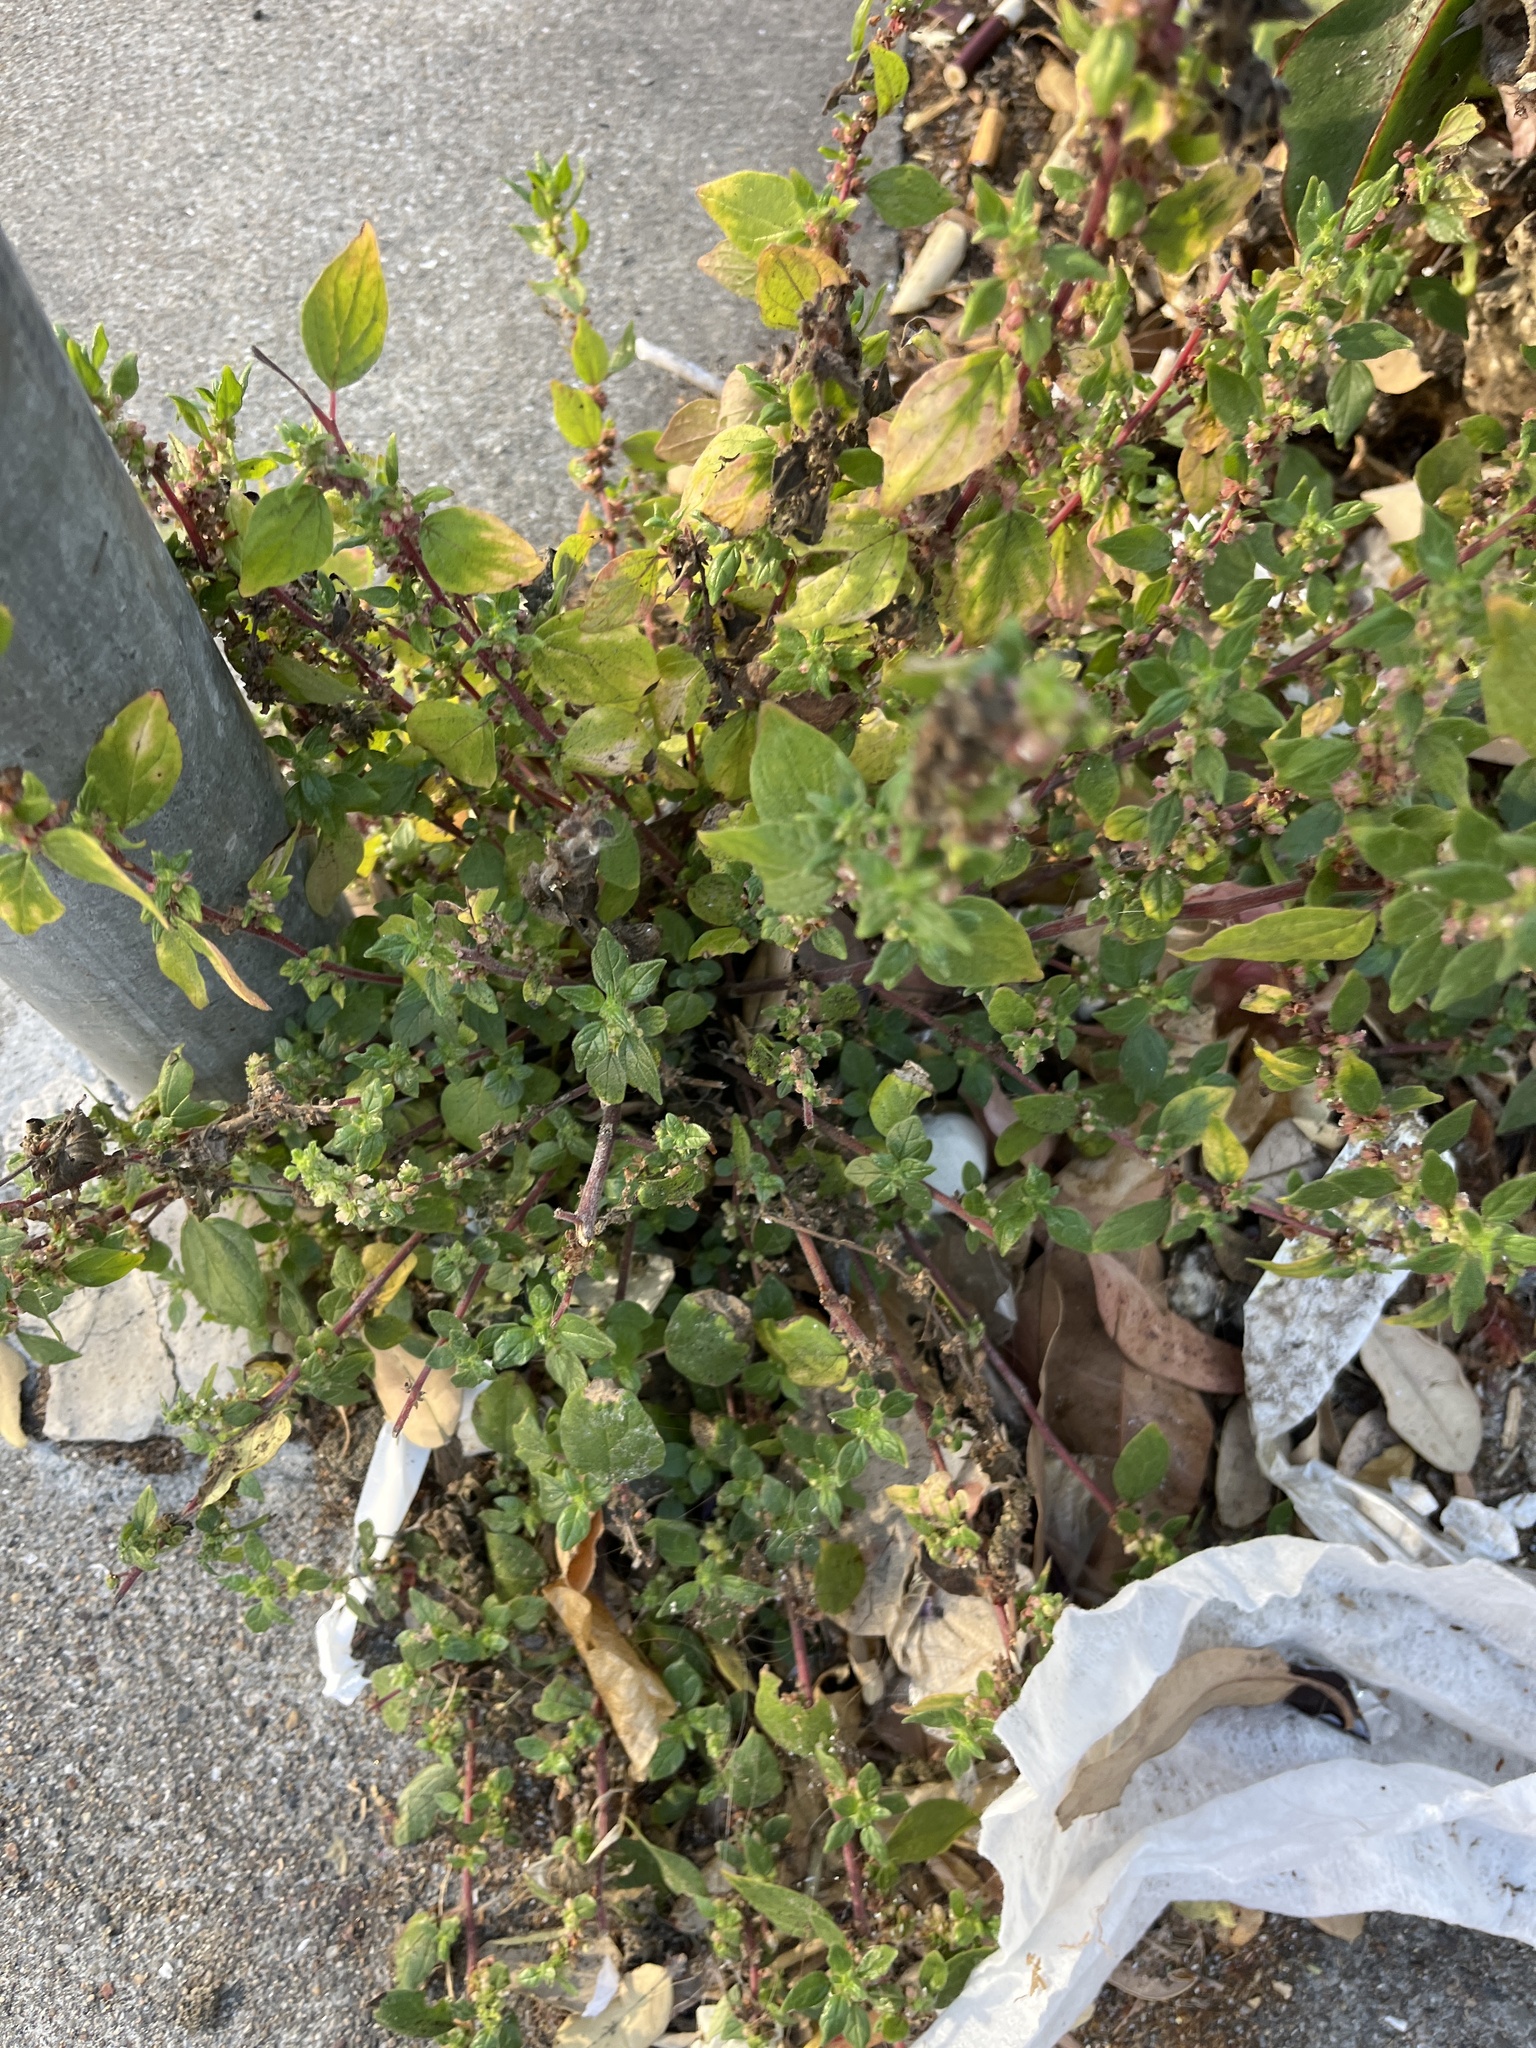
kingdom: Plantae
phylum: Tracheophyta
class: Magnoliopsida
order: Rosales
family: Urticaceae
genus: Parietaria
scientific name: Parietaria judaica
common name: Pellitory-of-the-wall
